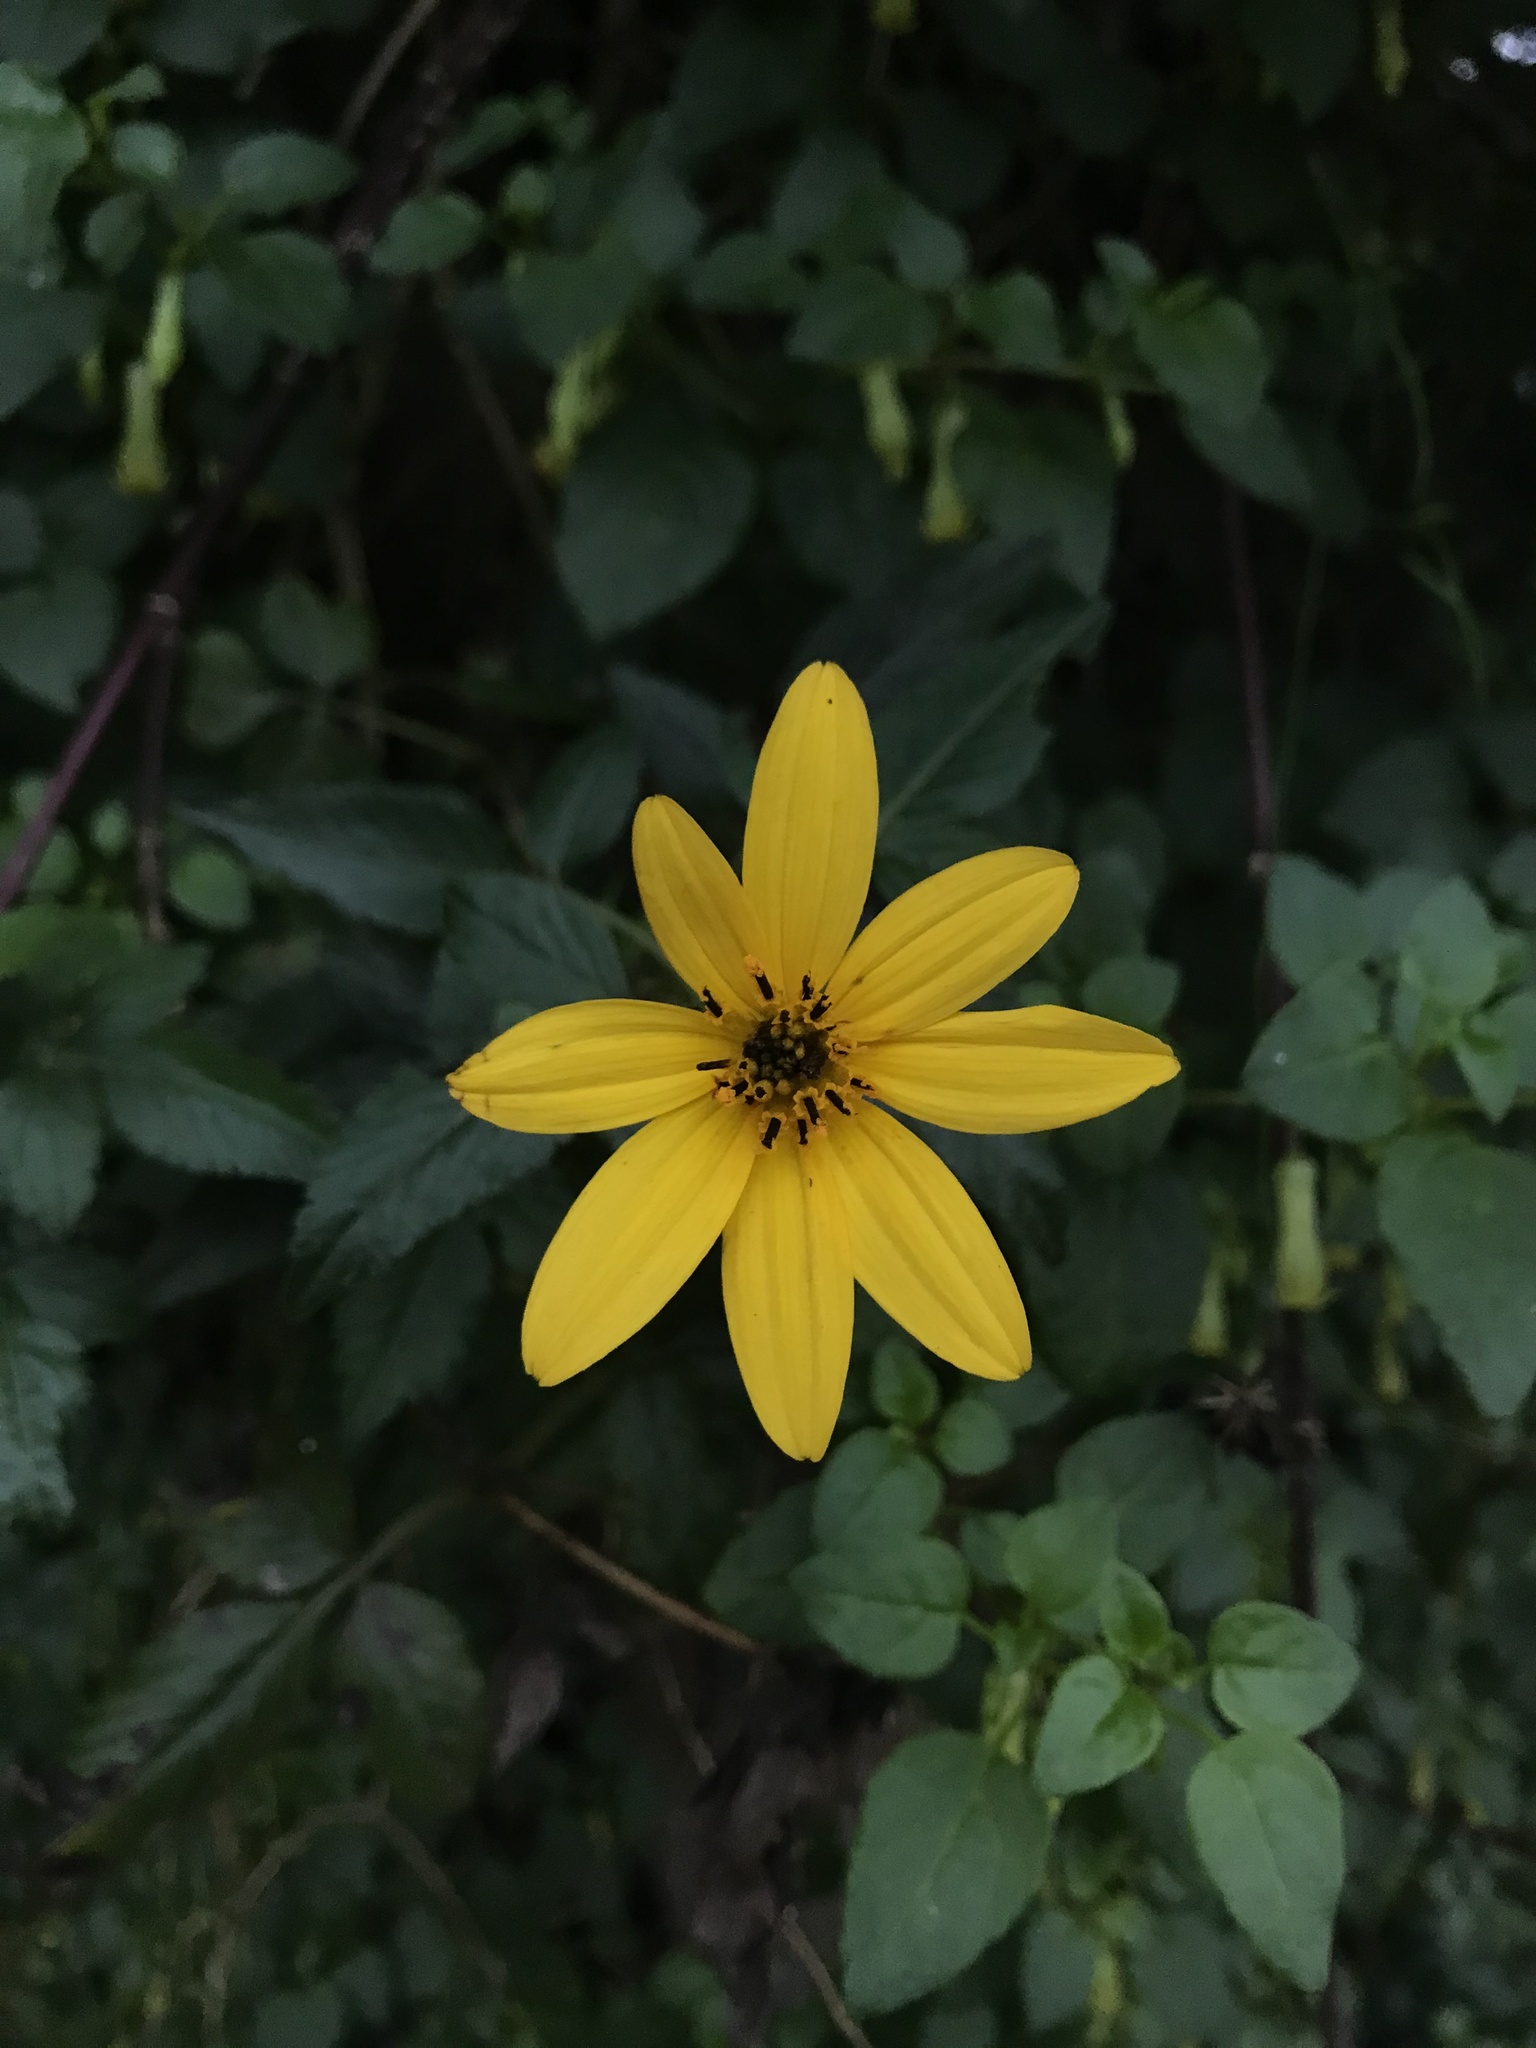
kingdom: Plantae
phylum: Tracheophyta
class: Magnoliopsida
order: Asterales
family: Asteraceae
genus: Bidens
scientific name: Bidens rubifolia
